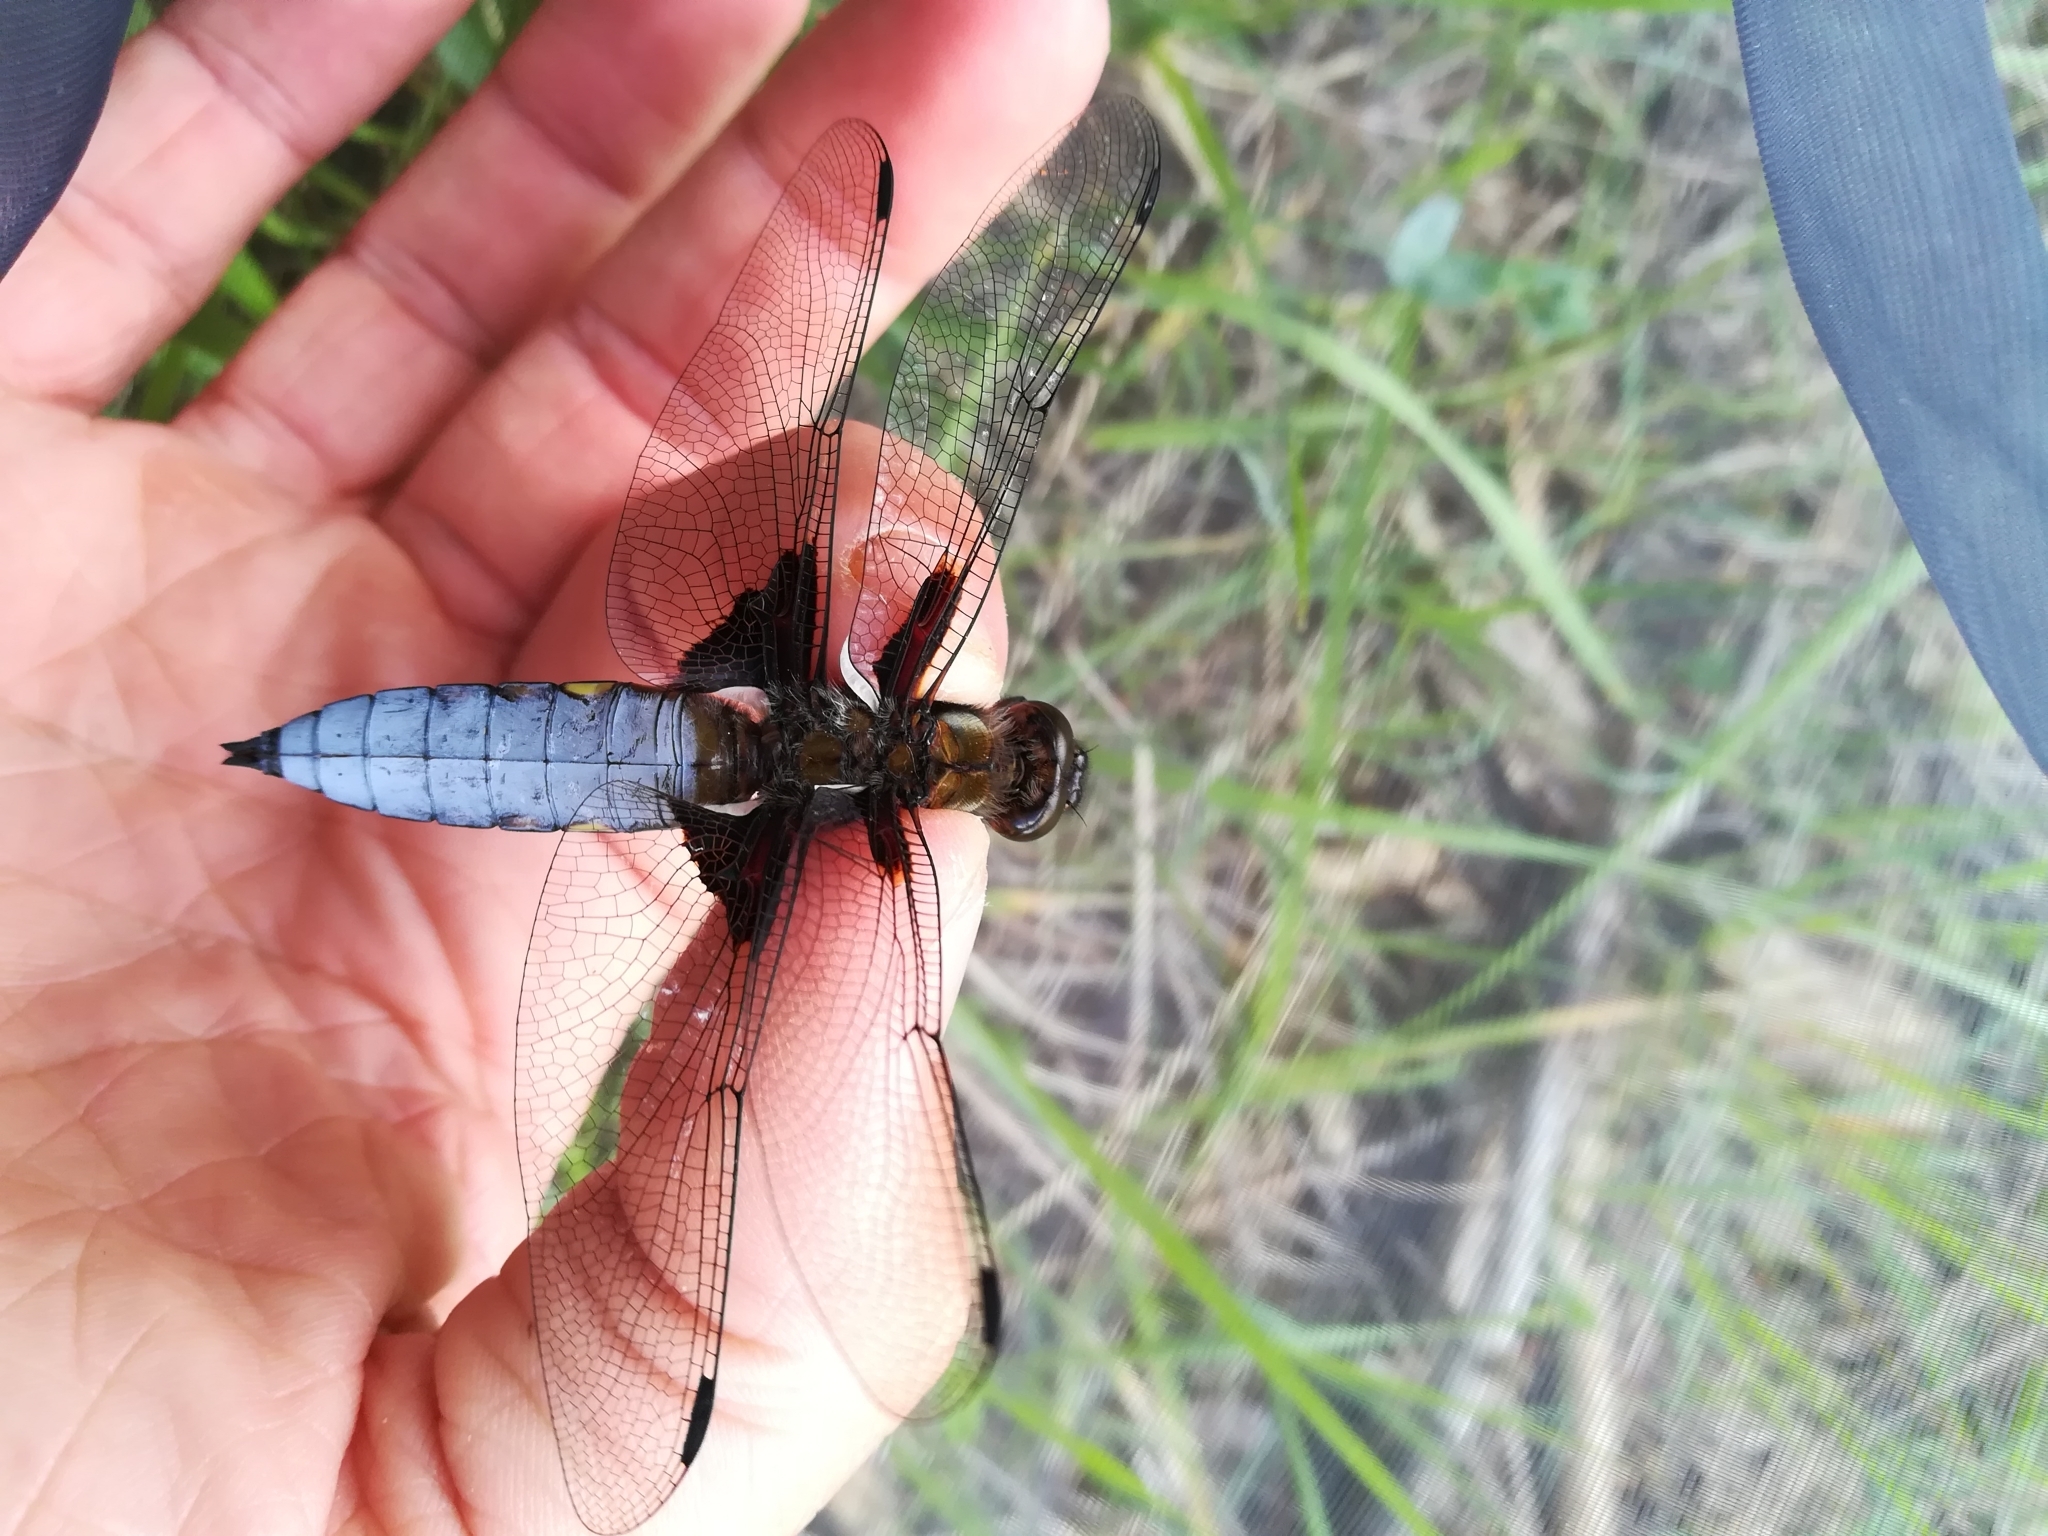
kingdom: Animalia
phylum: Arthropoda
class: Insecta
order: Odonata
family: Libellulidae
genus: Libellula
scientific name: Libellula depressa
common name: Broad-bodied chaser
